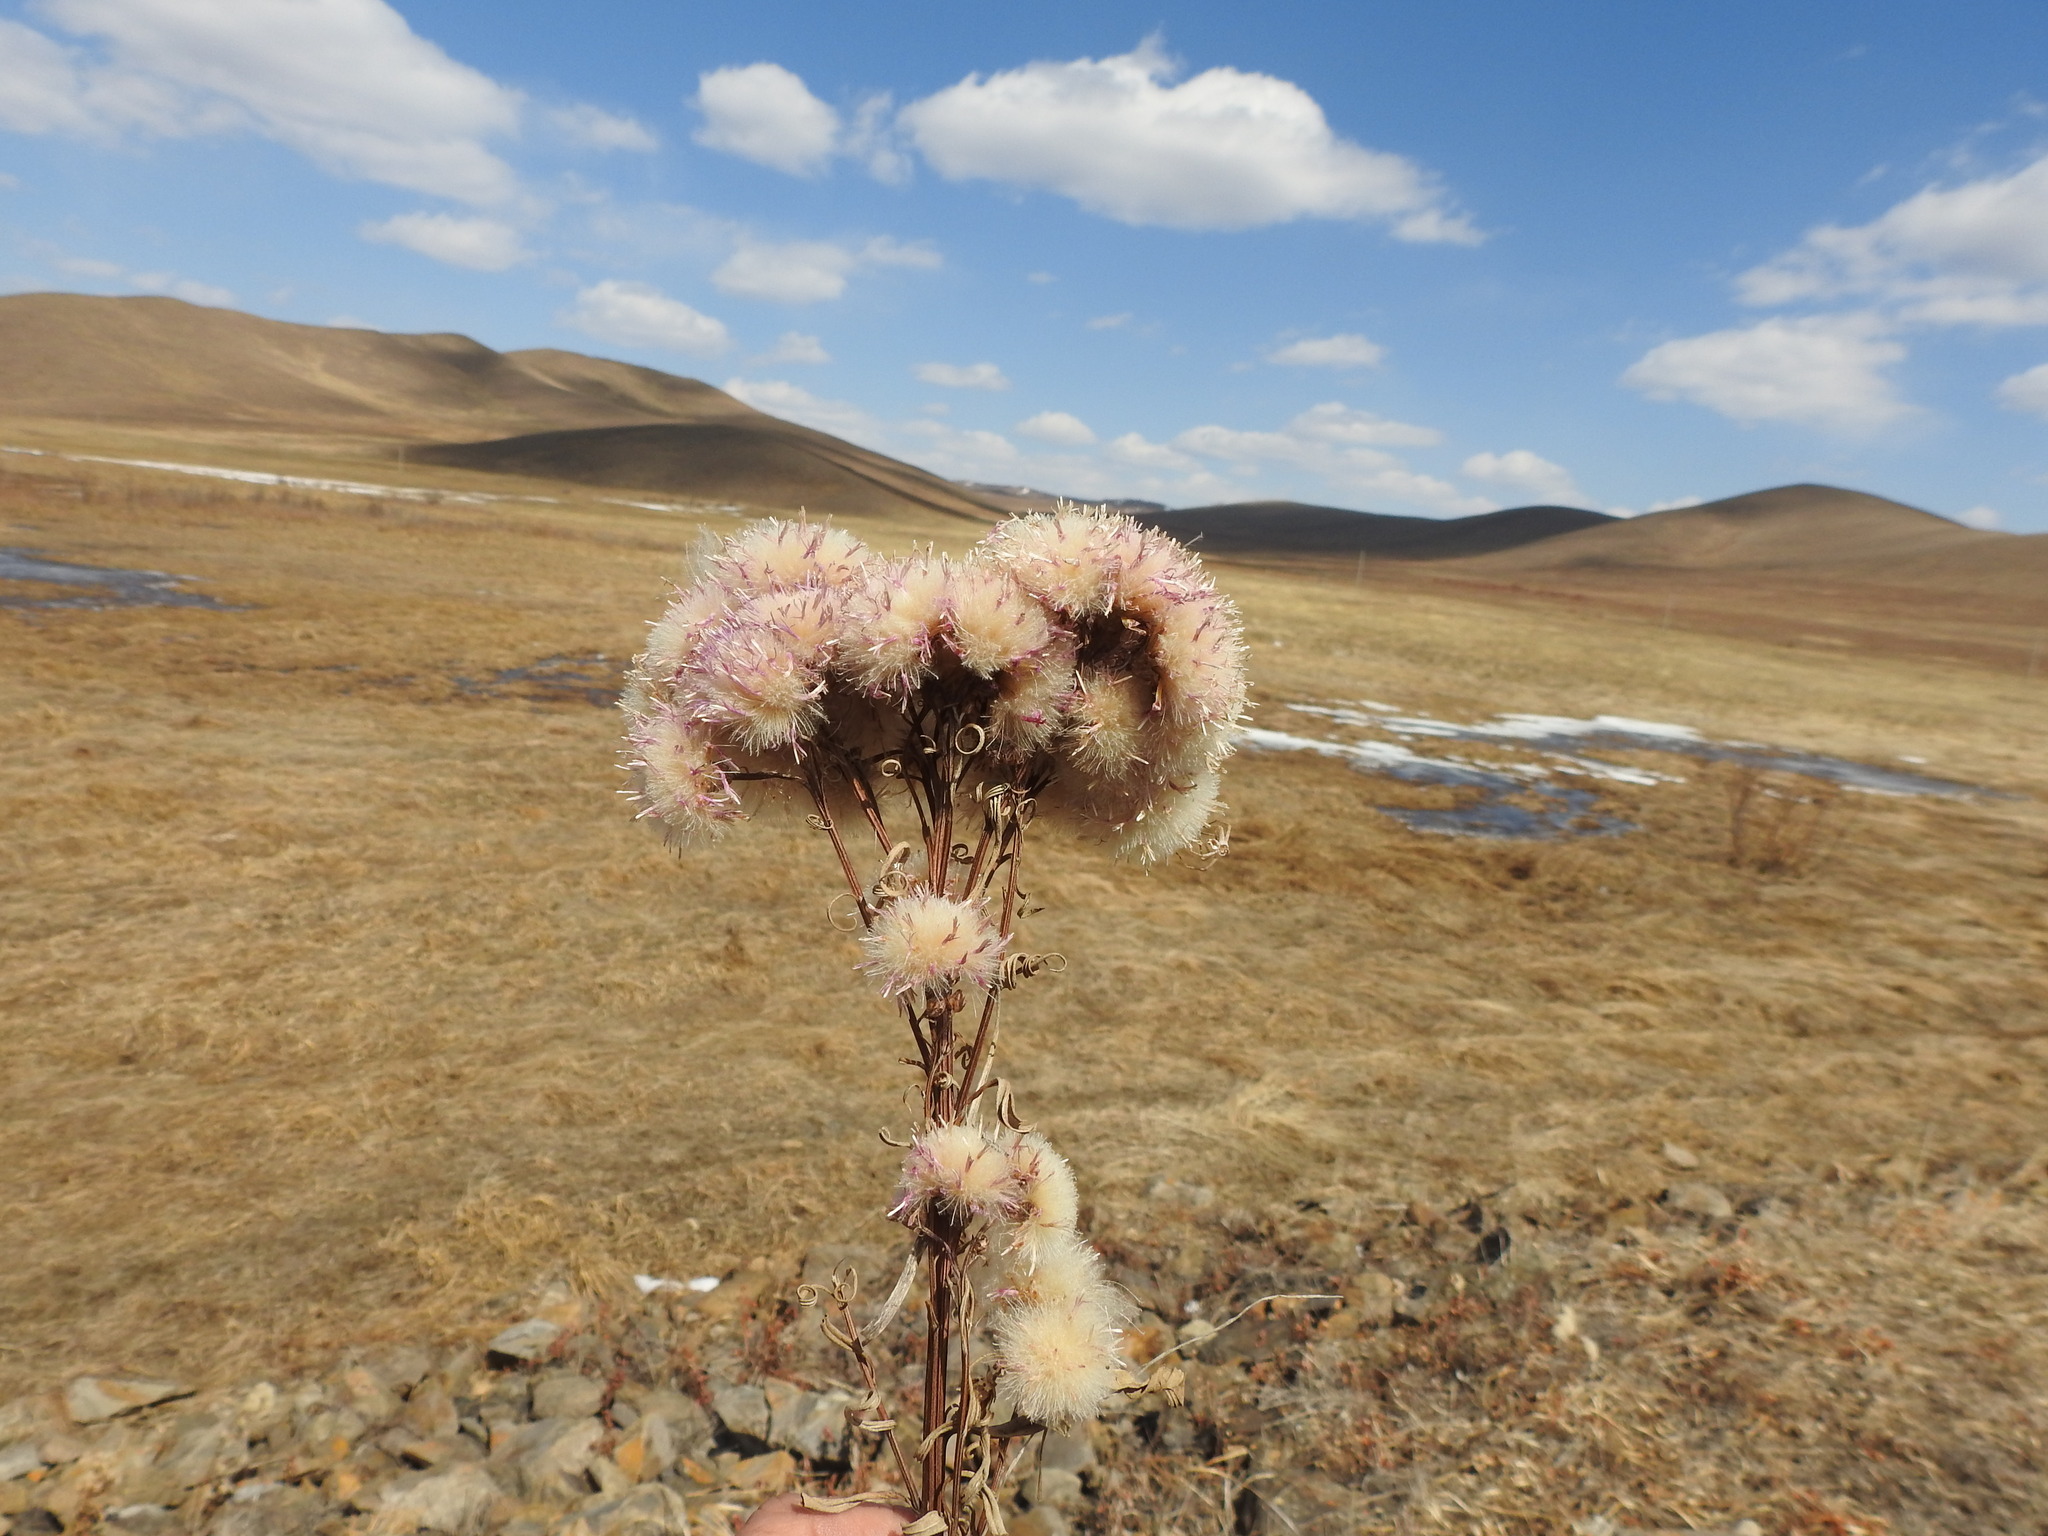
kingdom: Plantae
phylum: Tracheophyta
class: Magnoliopsida
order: Asterales
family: Asteraceae
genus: Saussurea
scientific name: Saussurea salicifolia
